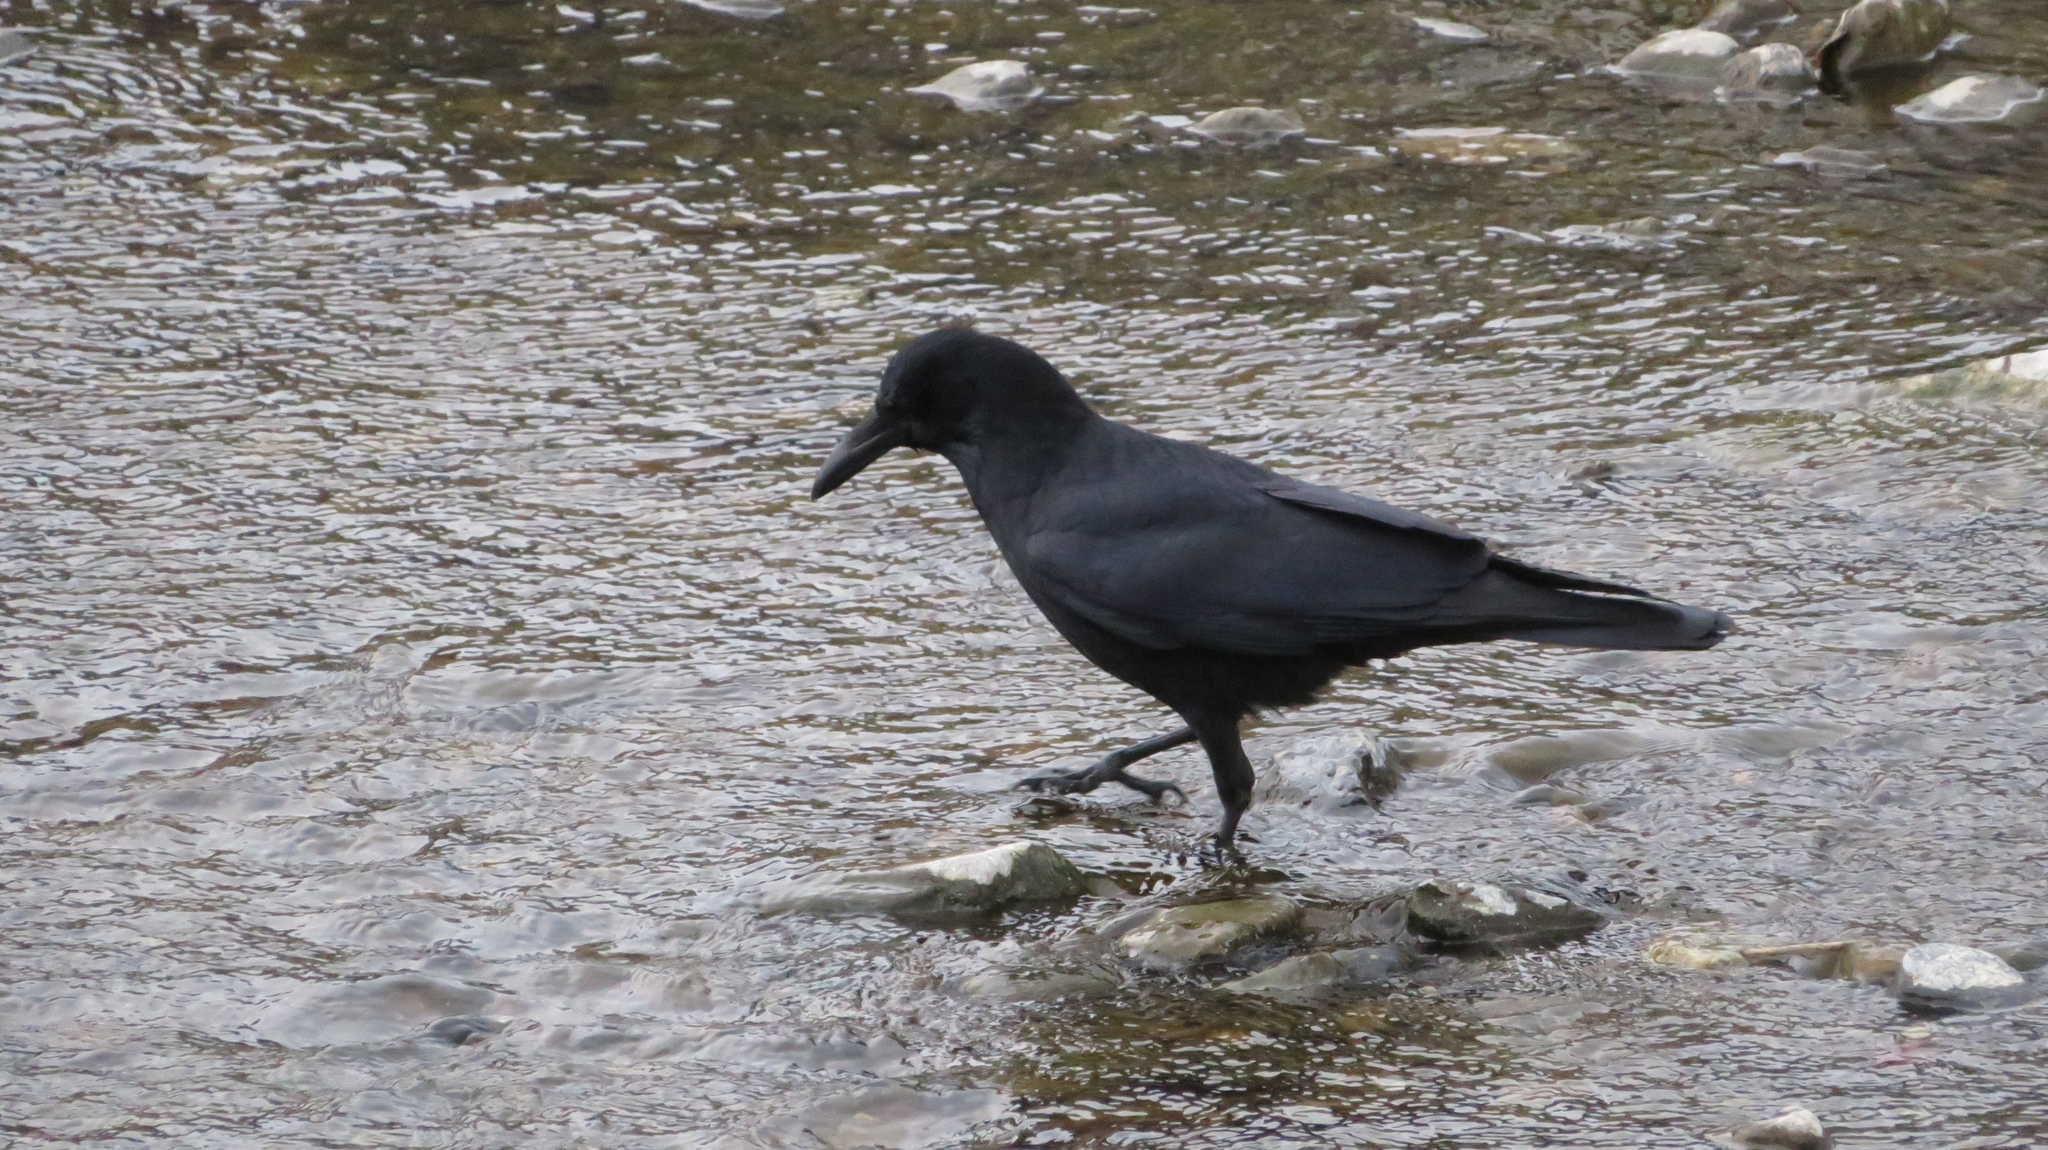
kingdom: Animalia
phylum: Chordata
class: Aves
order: Passeriformes
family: Corvidae
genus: Corvus
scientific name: Corvus corone
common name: Carrion crow
